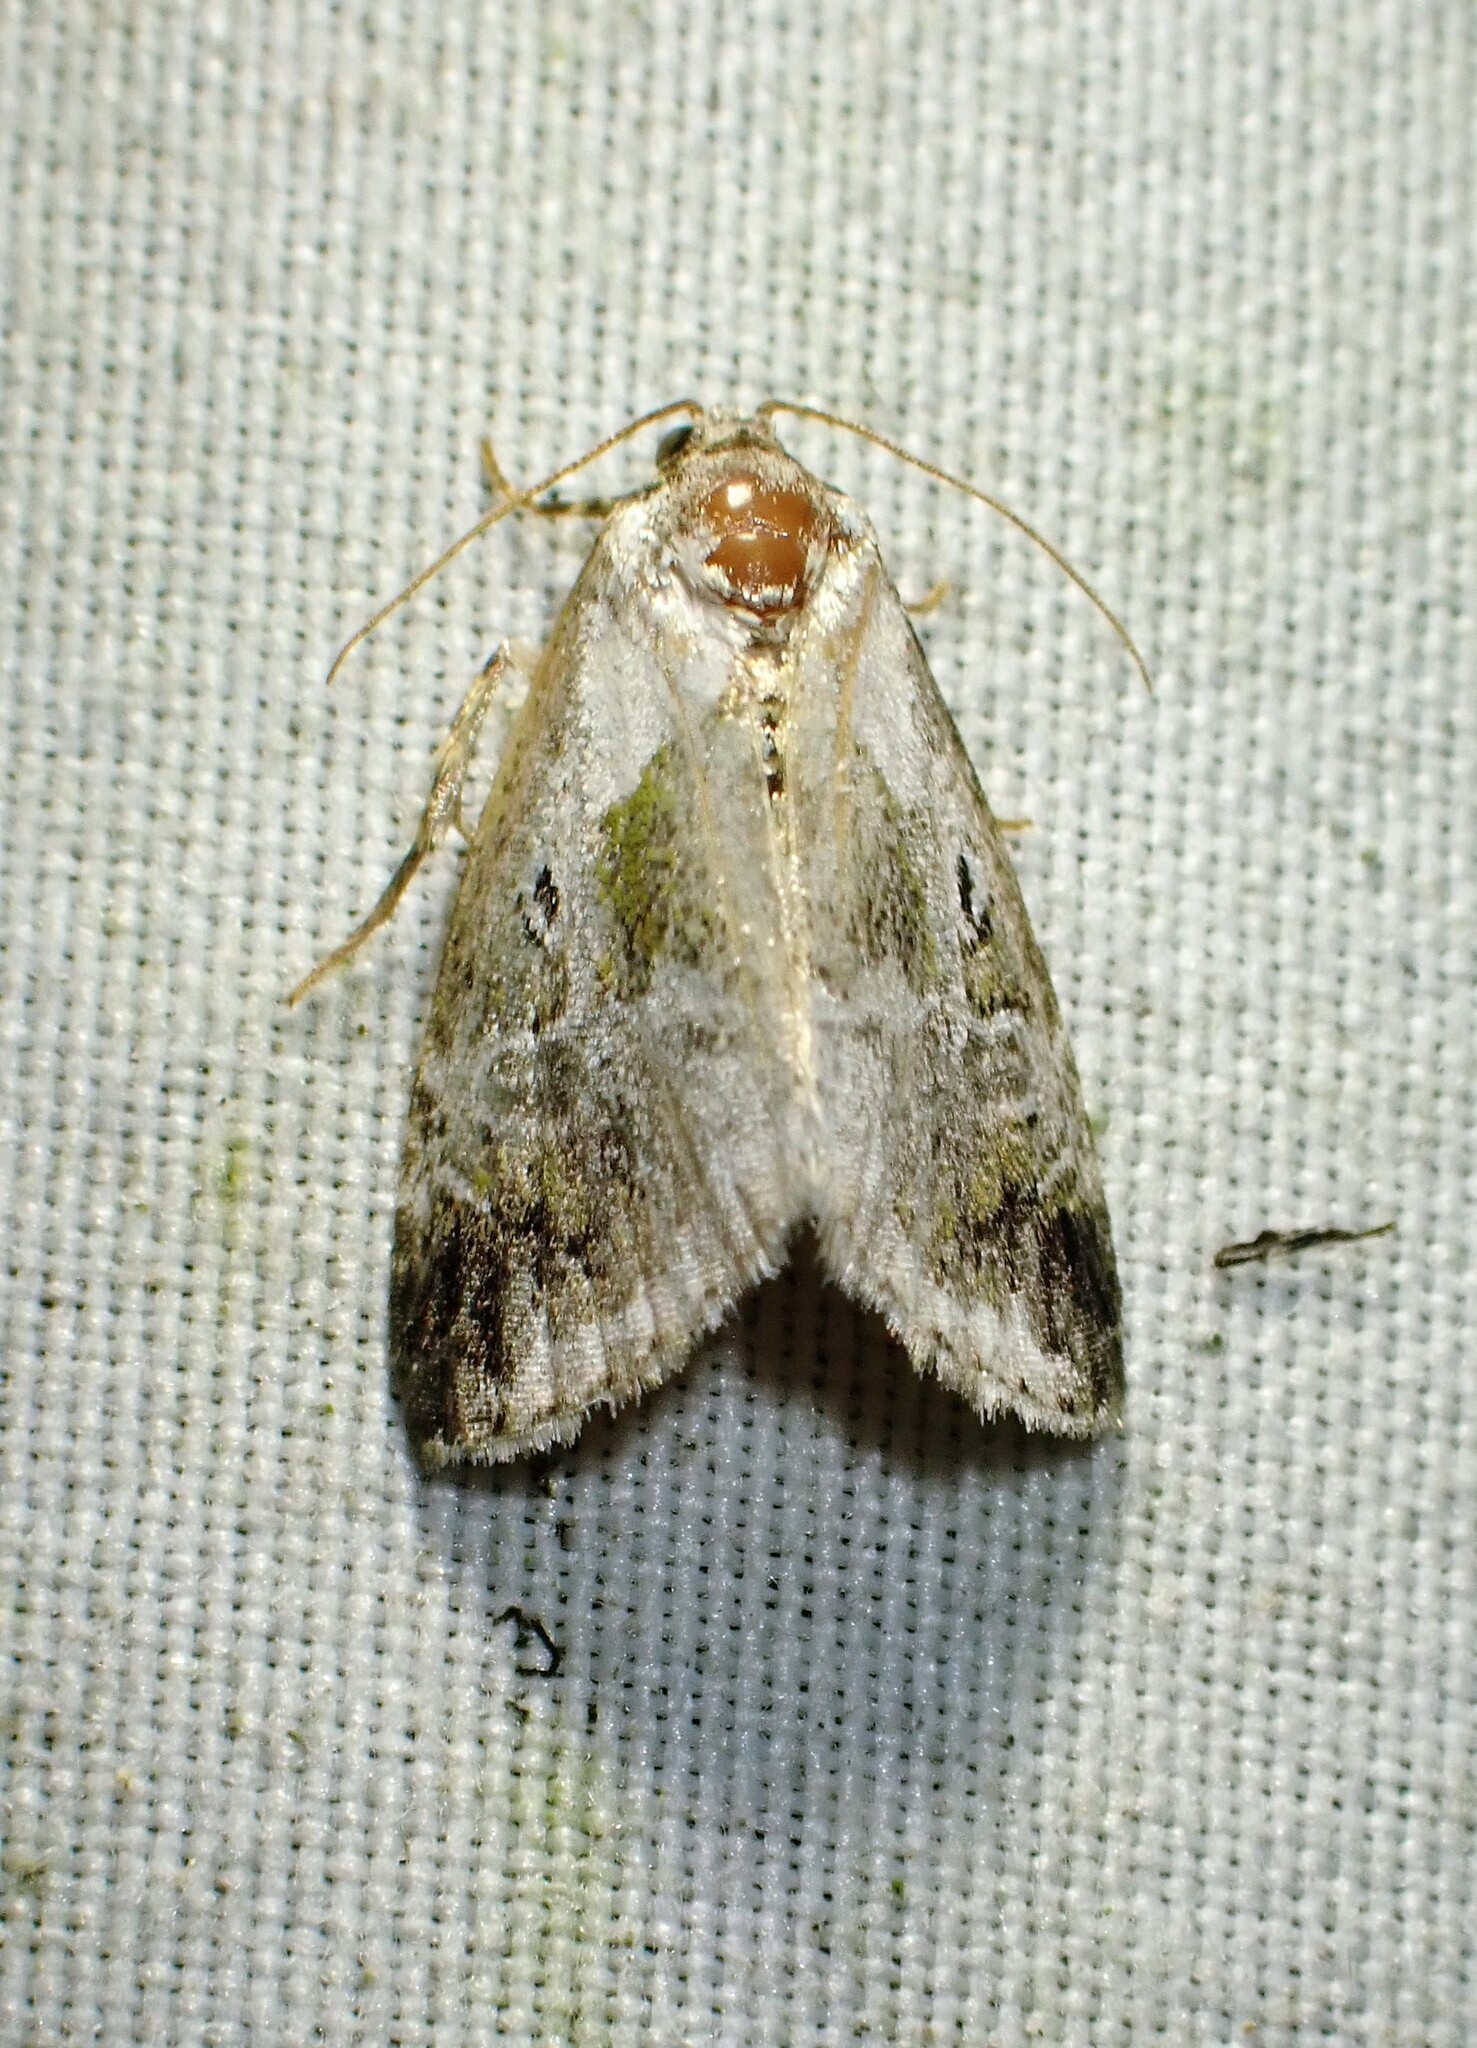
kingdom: Animalia
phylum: Arthropoda
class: Insecta
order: Lepidoptera
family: Noctuidae
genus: Maliattha
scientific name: Maliattha synochitis
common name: Black-dotted glyph
